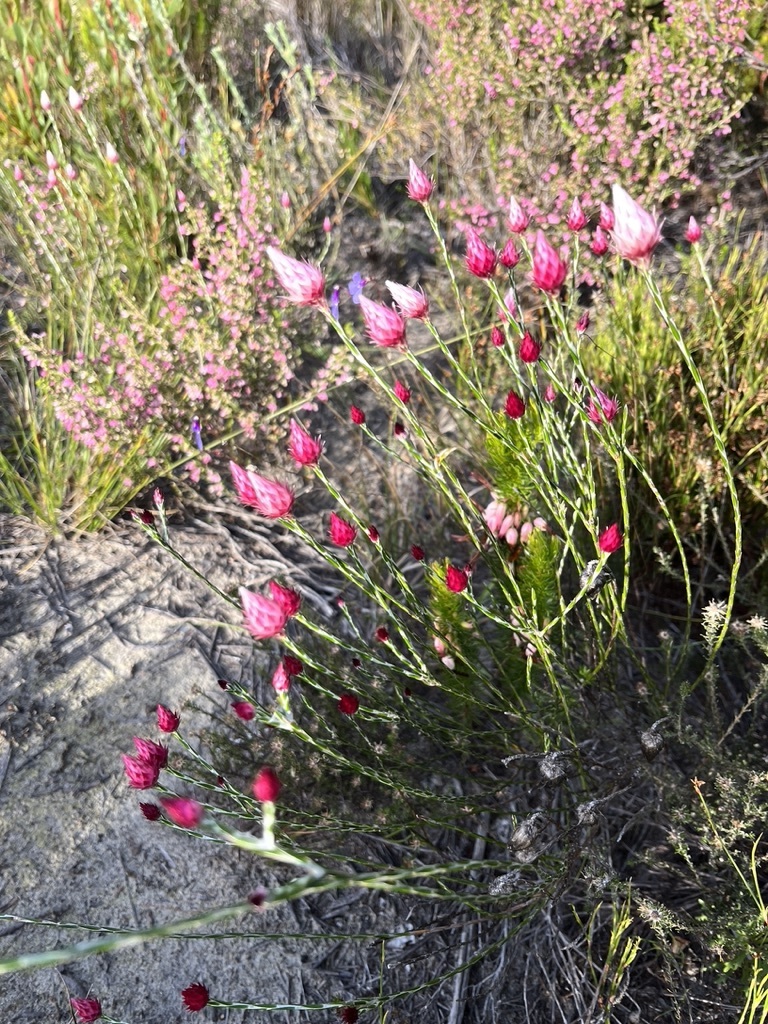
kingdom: Plantae
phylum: Tracheophyta
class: Magnoliopsida
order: Asterales
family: Asteraceae
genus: Edmondia
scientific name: Edmondia sesamoides
